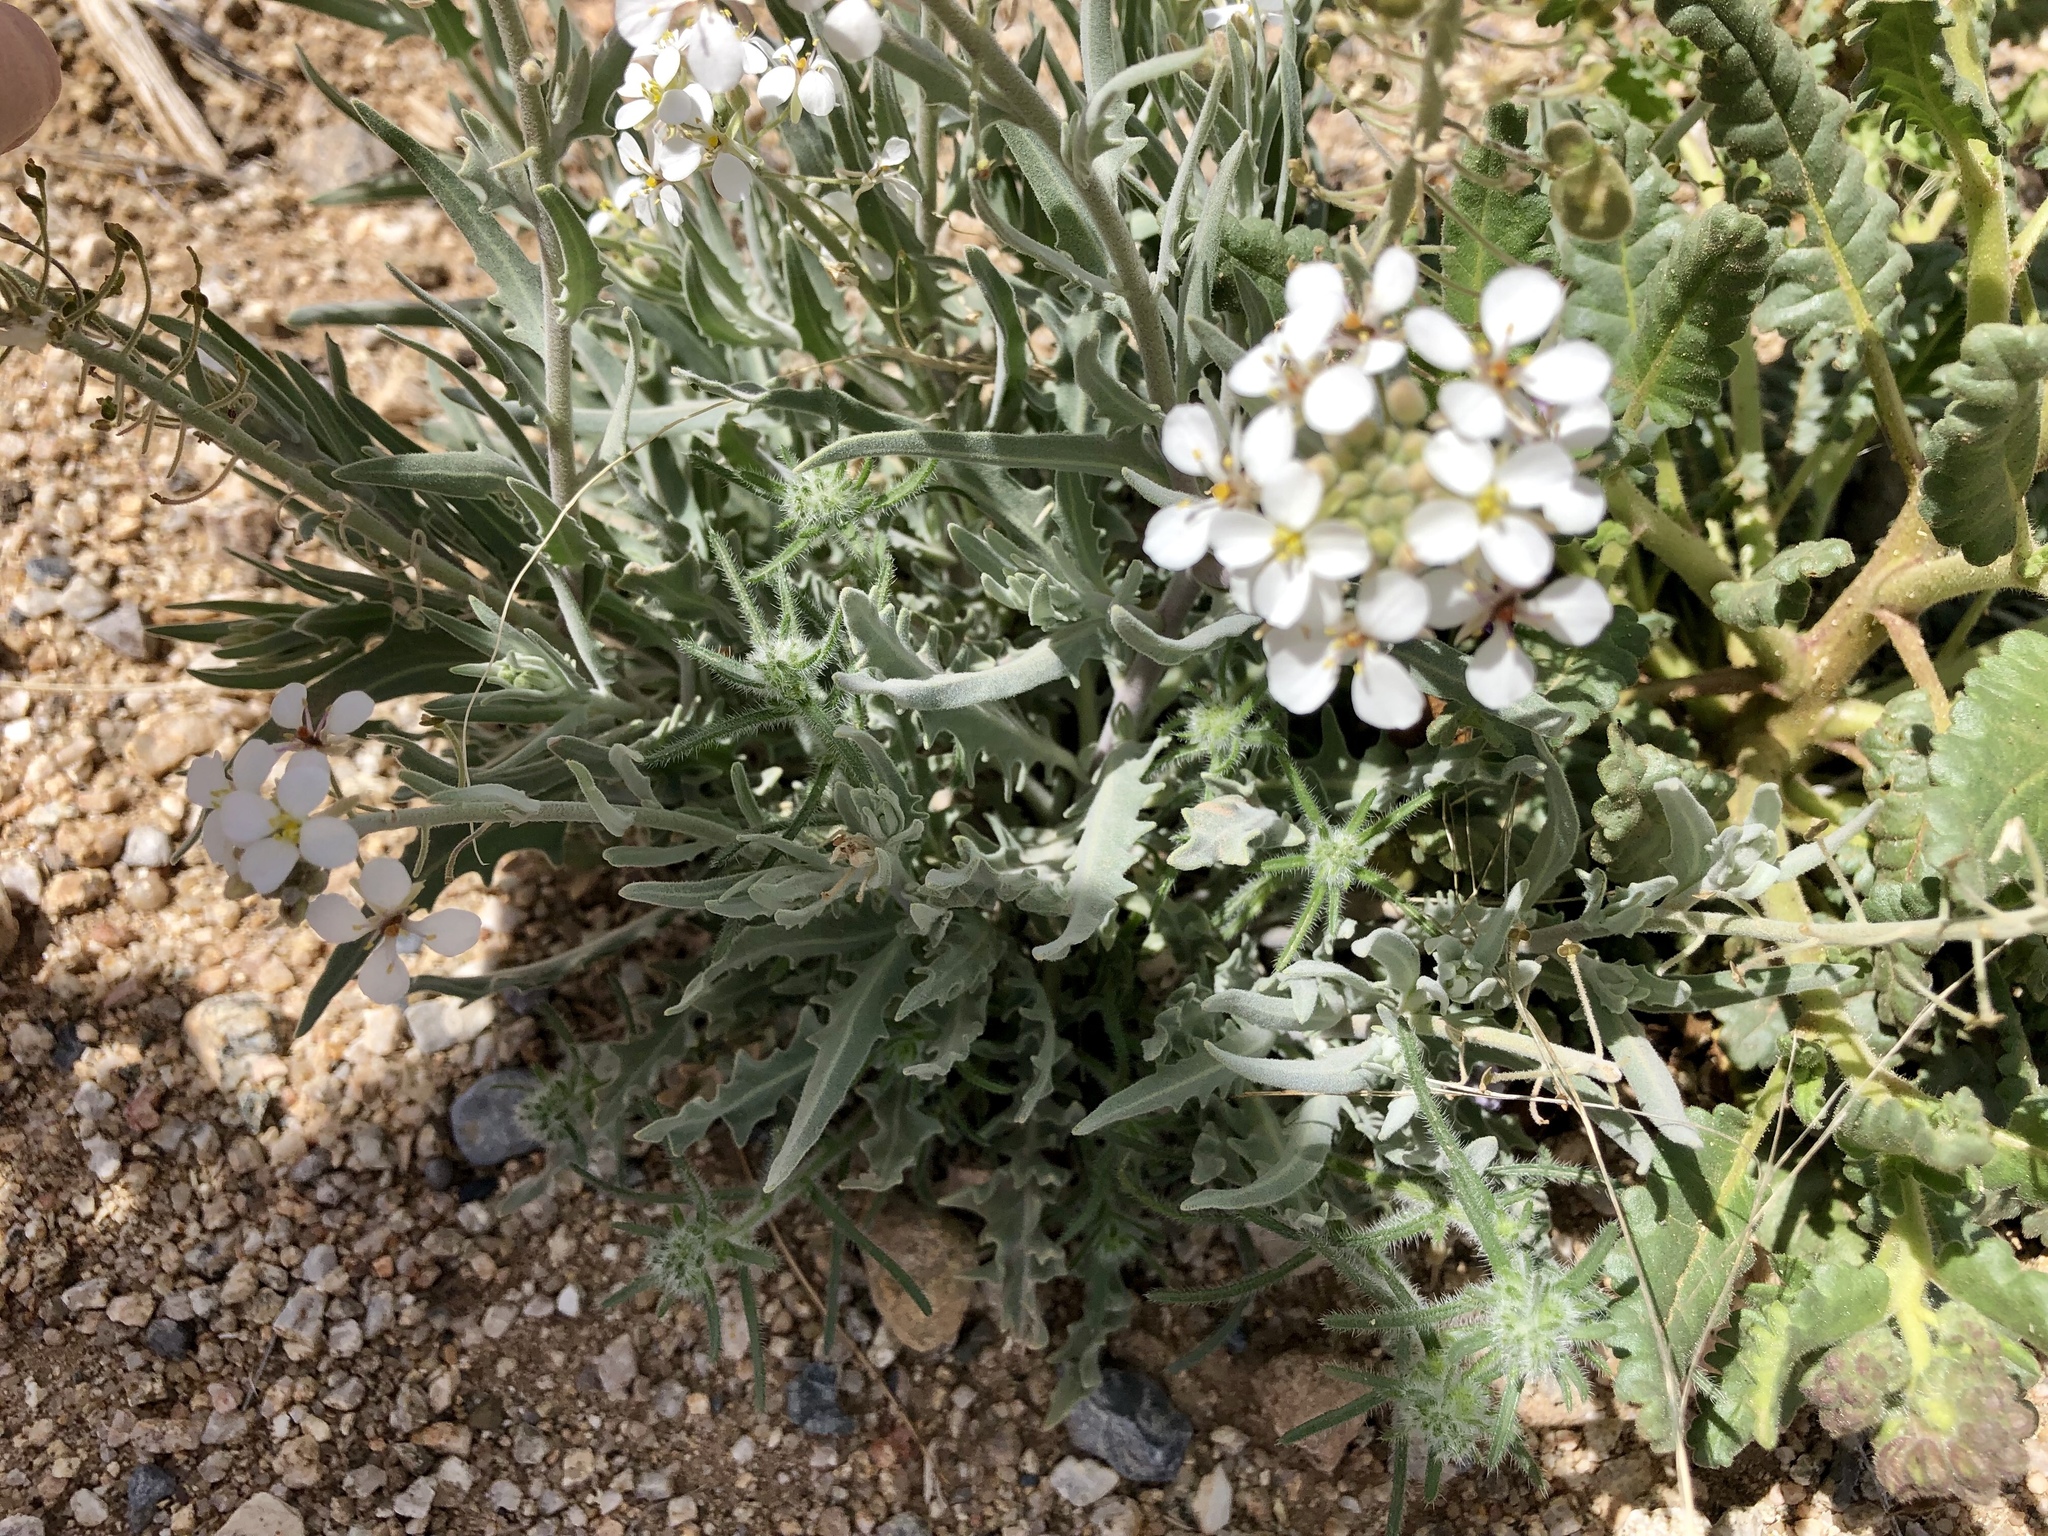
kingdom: Plantae
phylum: Tracheophyta
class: Magnoliopsida
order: Brassicales
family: Brassicaceae
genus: Dimorphocarpa
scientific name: Dimorphocarpa wislizenii
